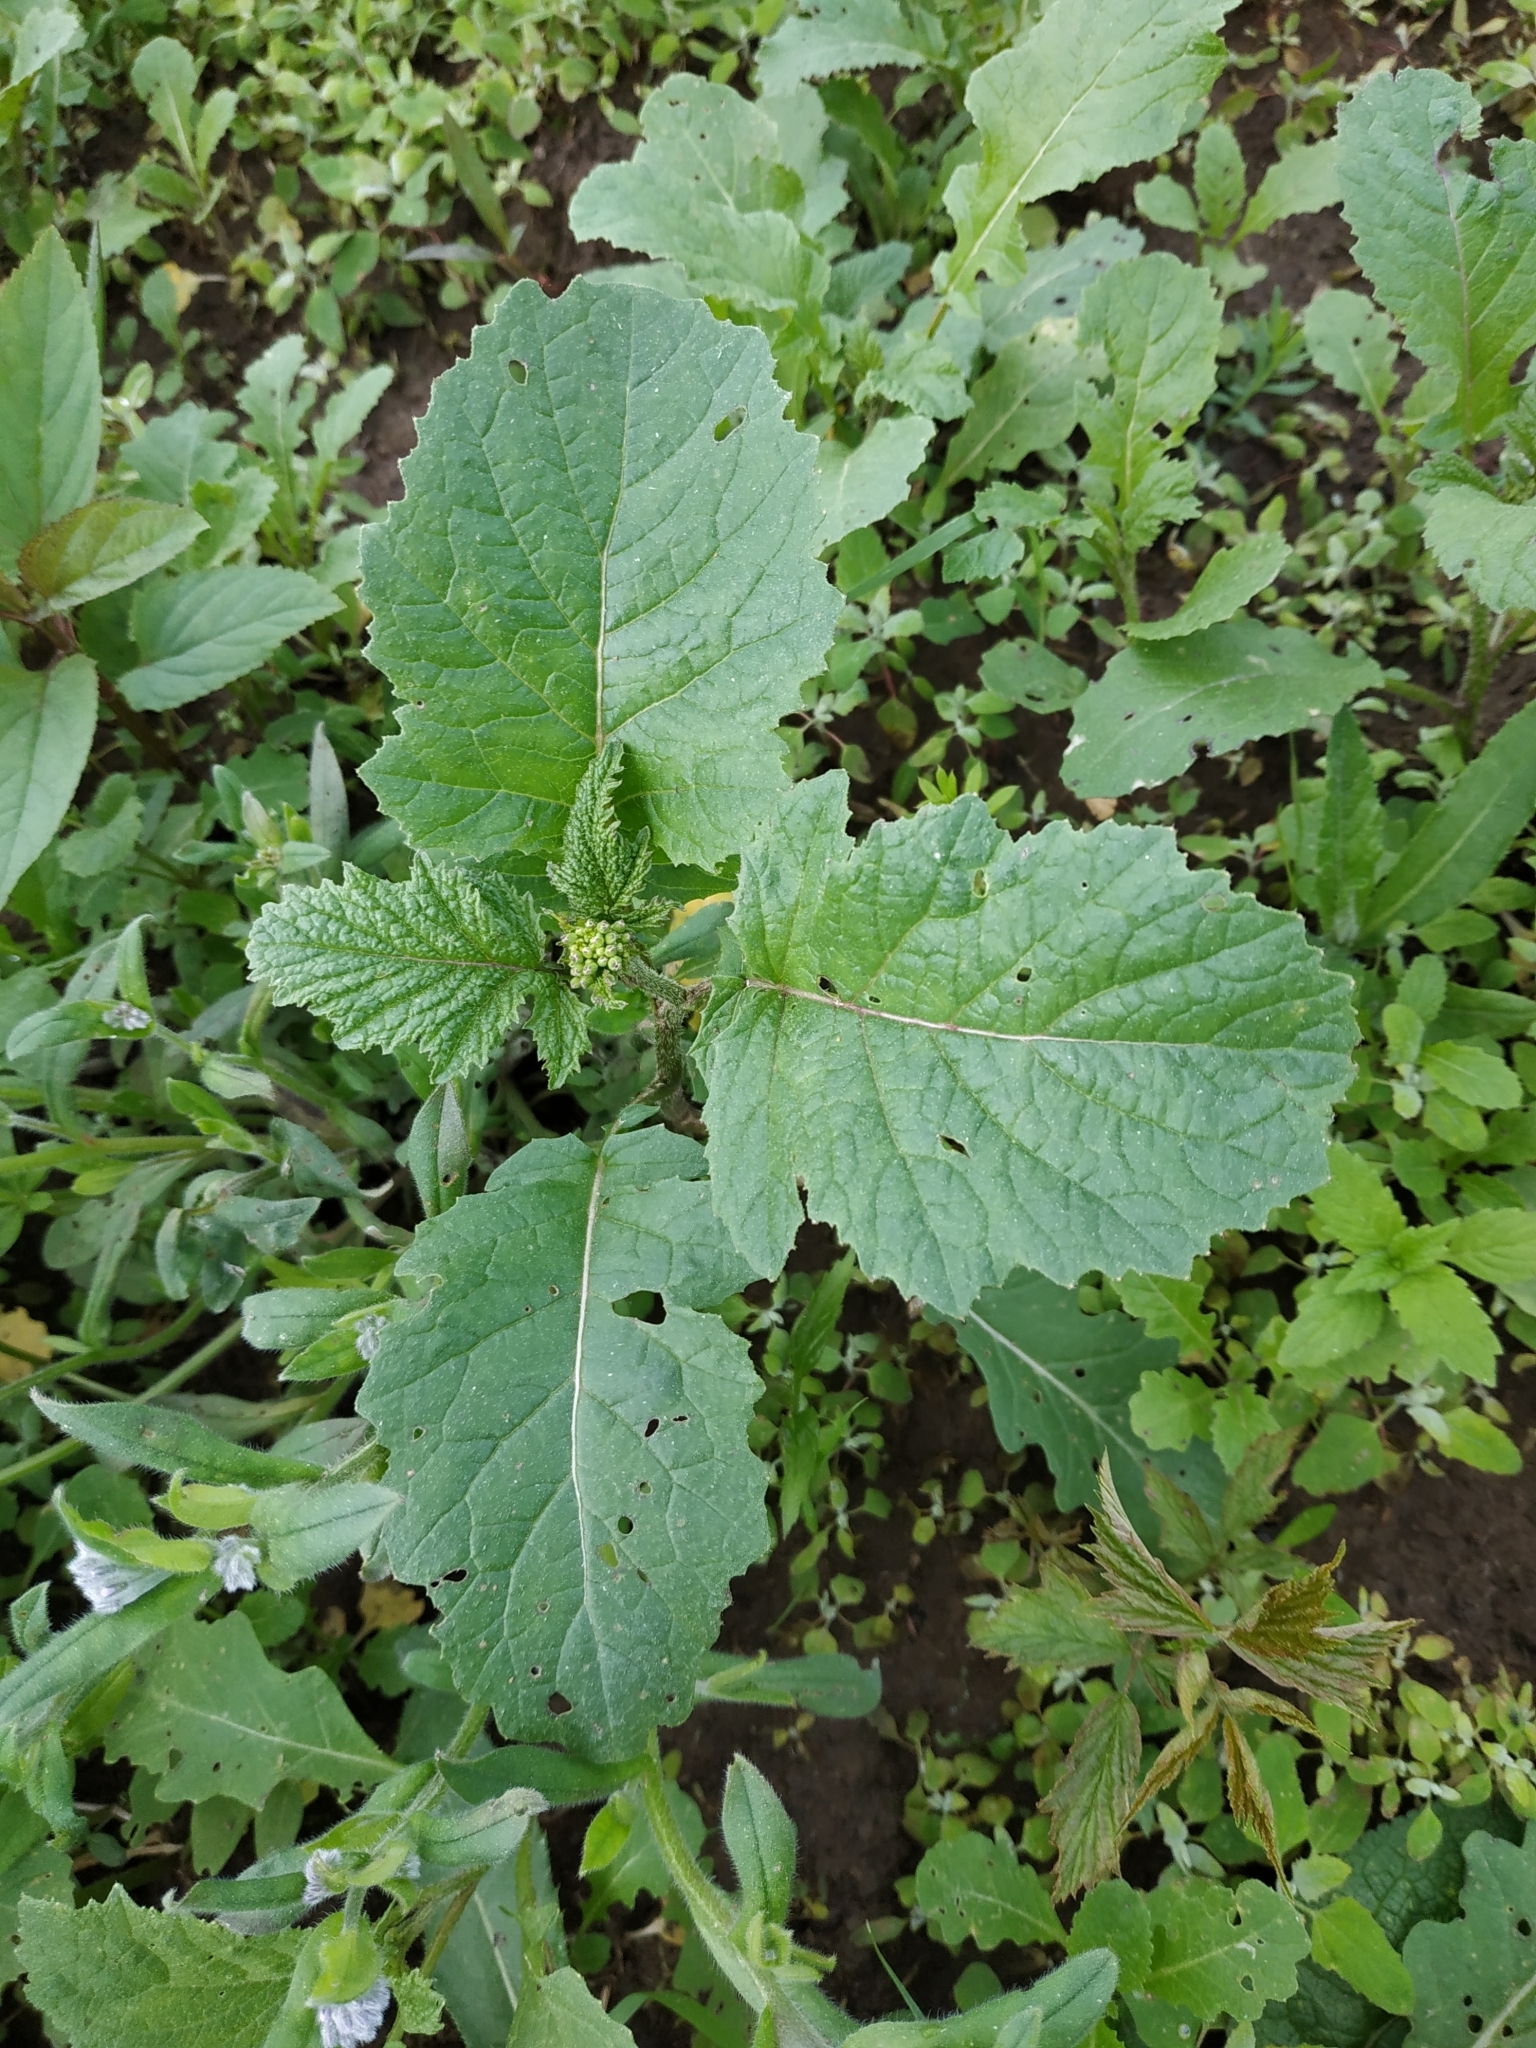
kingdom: Plantae
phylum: Tracheophyta
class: Magnoliopsida
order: Brassicales
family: Brassicaceae
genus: Sinapis
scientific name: Sinapis arvensis
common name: Charlock
